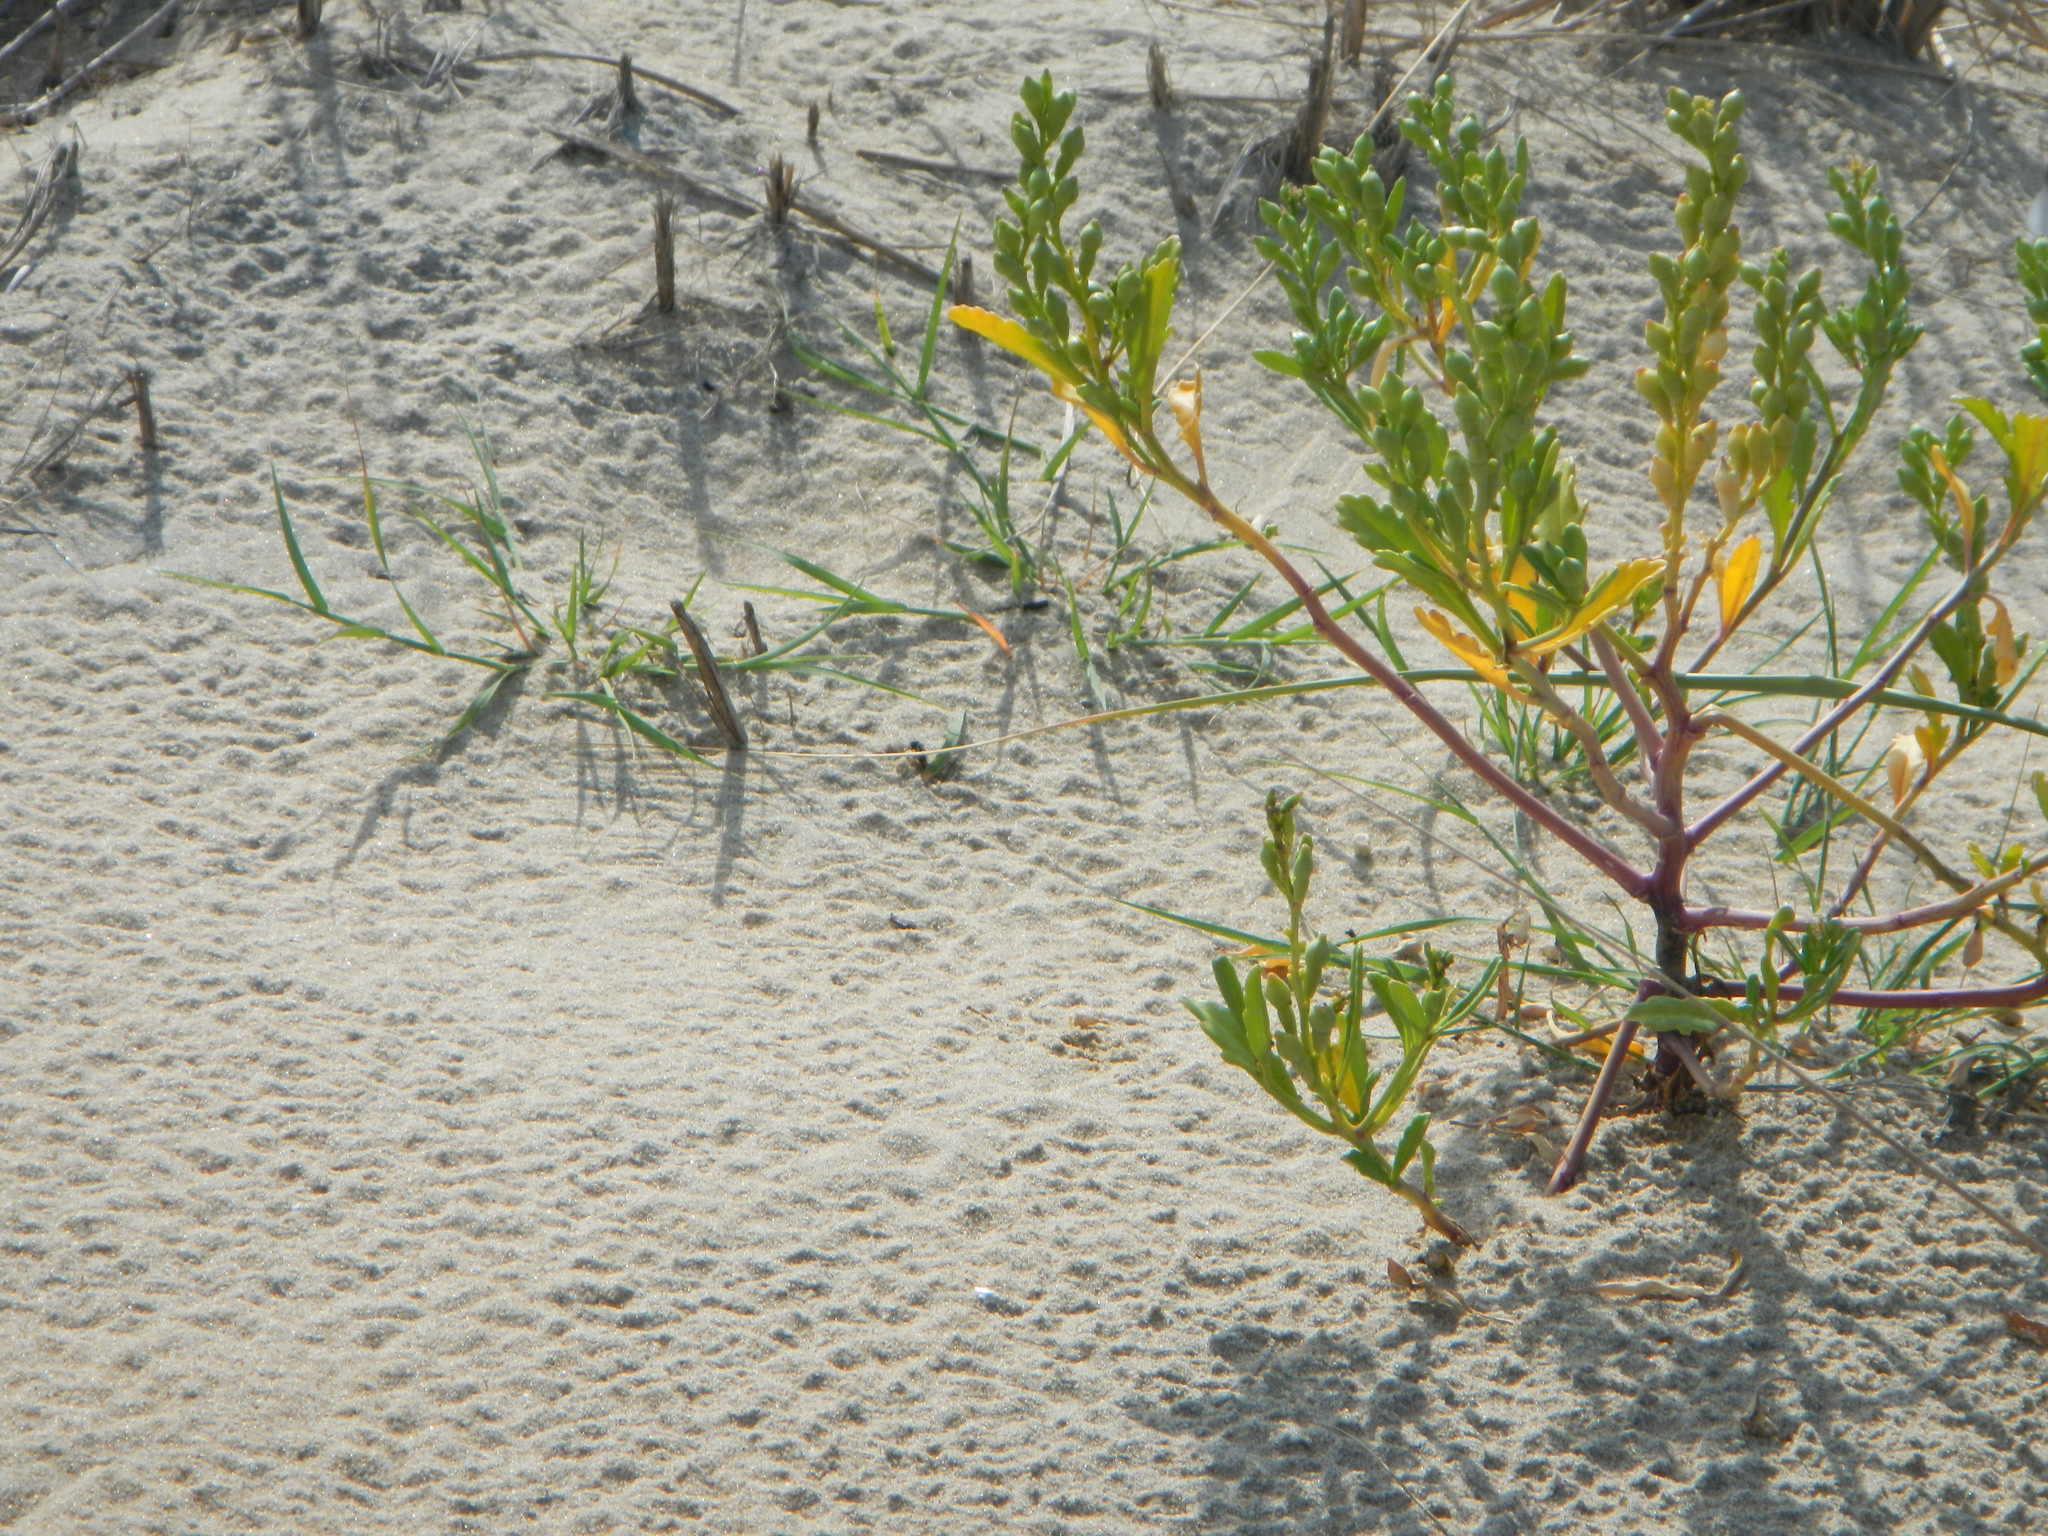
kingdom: Plantae
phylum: Tracheophyta
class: Magnoliopsida
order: Brassicales
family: Brassicaceae
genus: Cakile
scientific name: Cakile edentula
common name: American sea rocket
